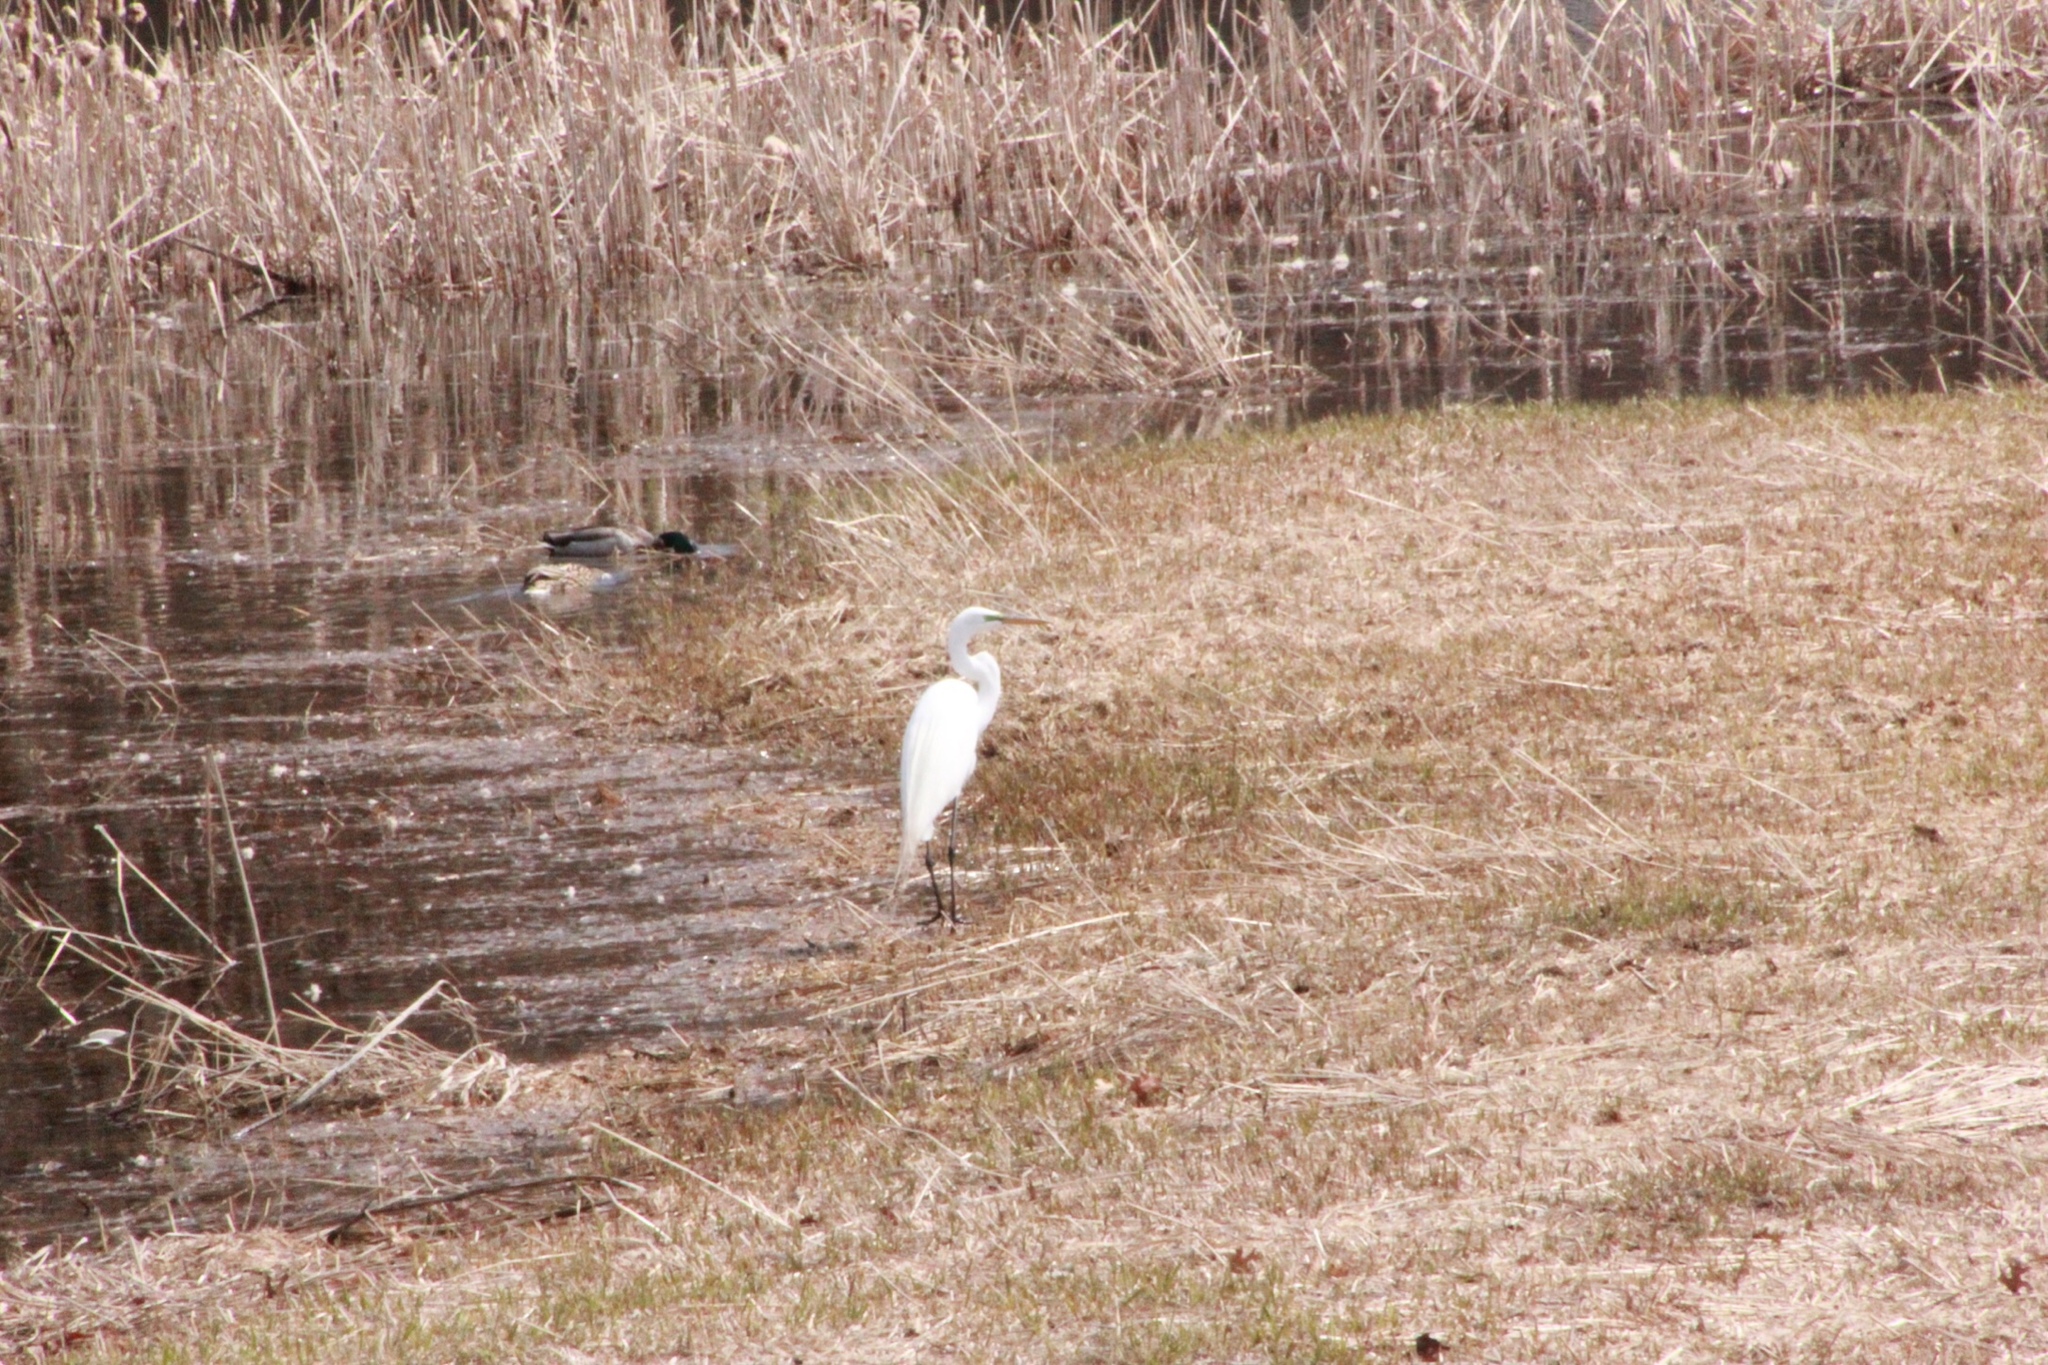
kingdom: Animalia
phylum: Chordata
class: Aves
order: Pelecaniformes
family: Ardeidae
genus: Ardea
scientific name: Ardea alba
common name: Great egret
